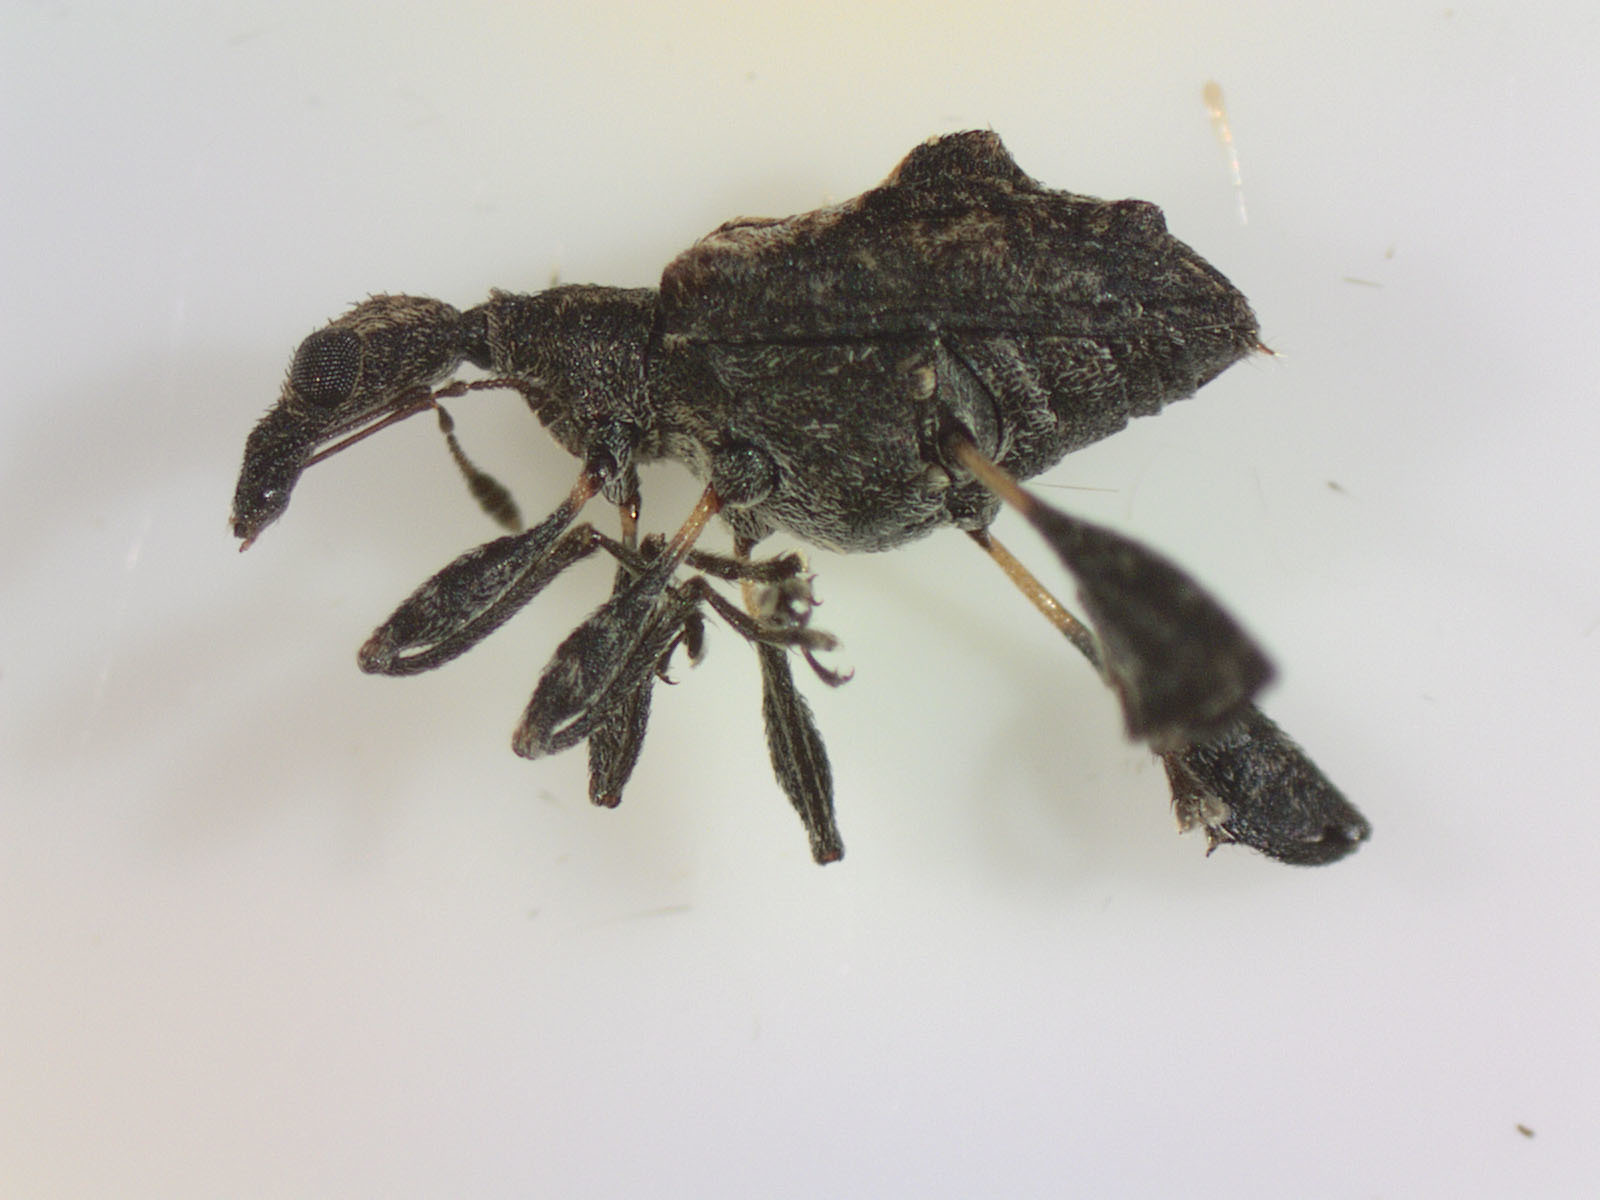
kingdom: Animalia
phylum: Arthropoda
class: Insecta
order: Coleoptera
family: Curculionidae
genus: Stephanorhynchus
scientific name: Stephanorhynchus lawsoni
